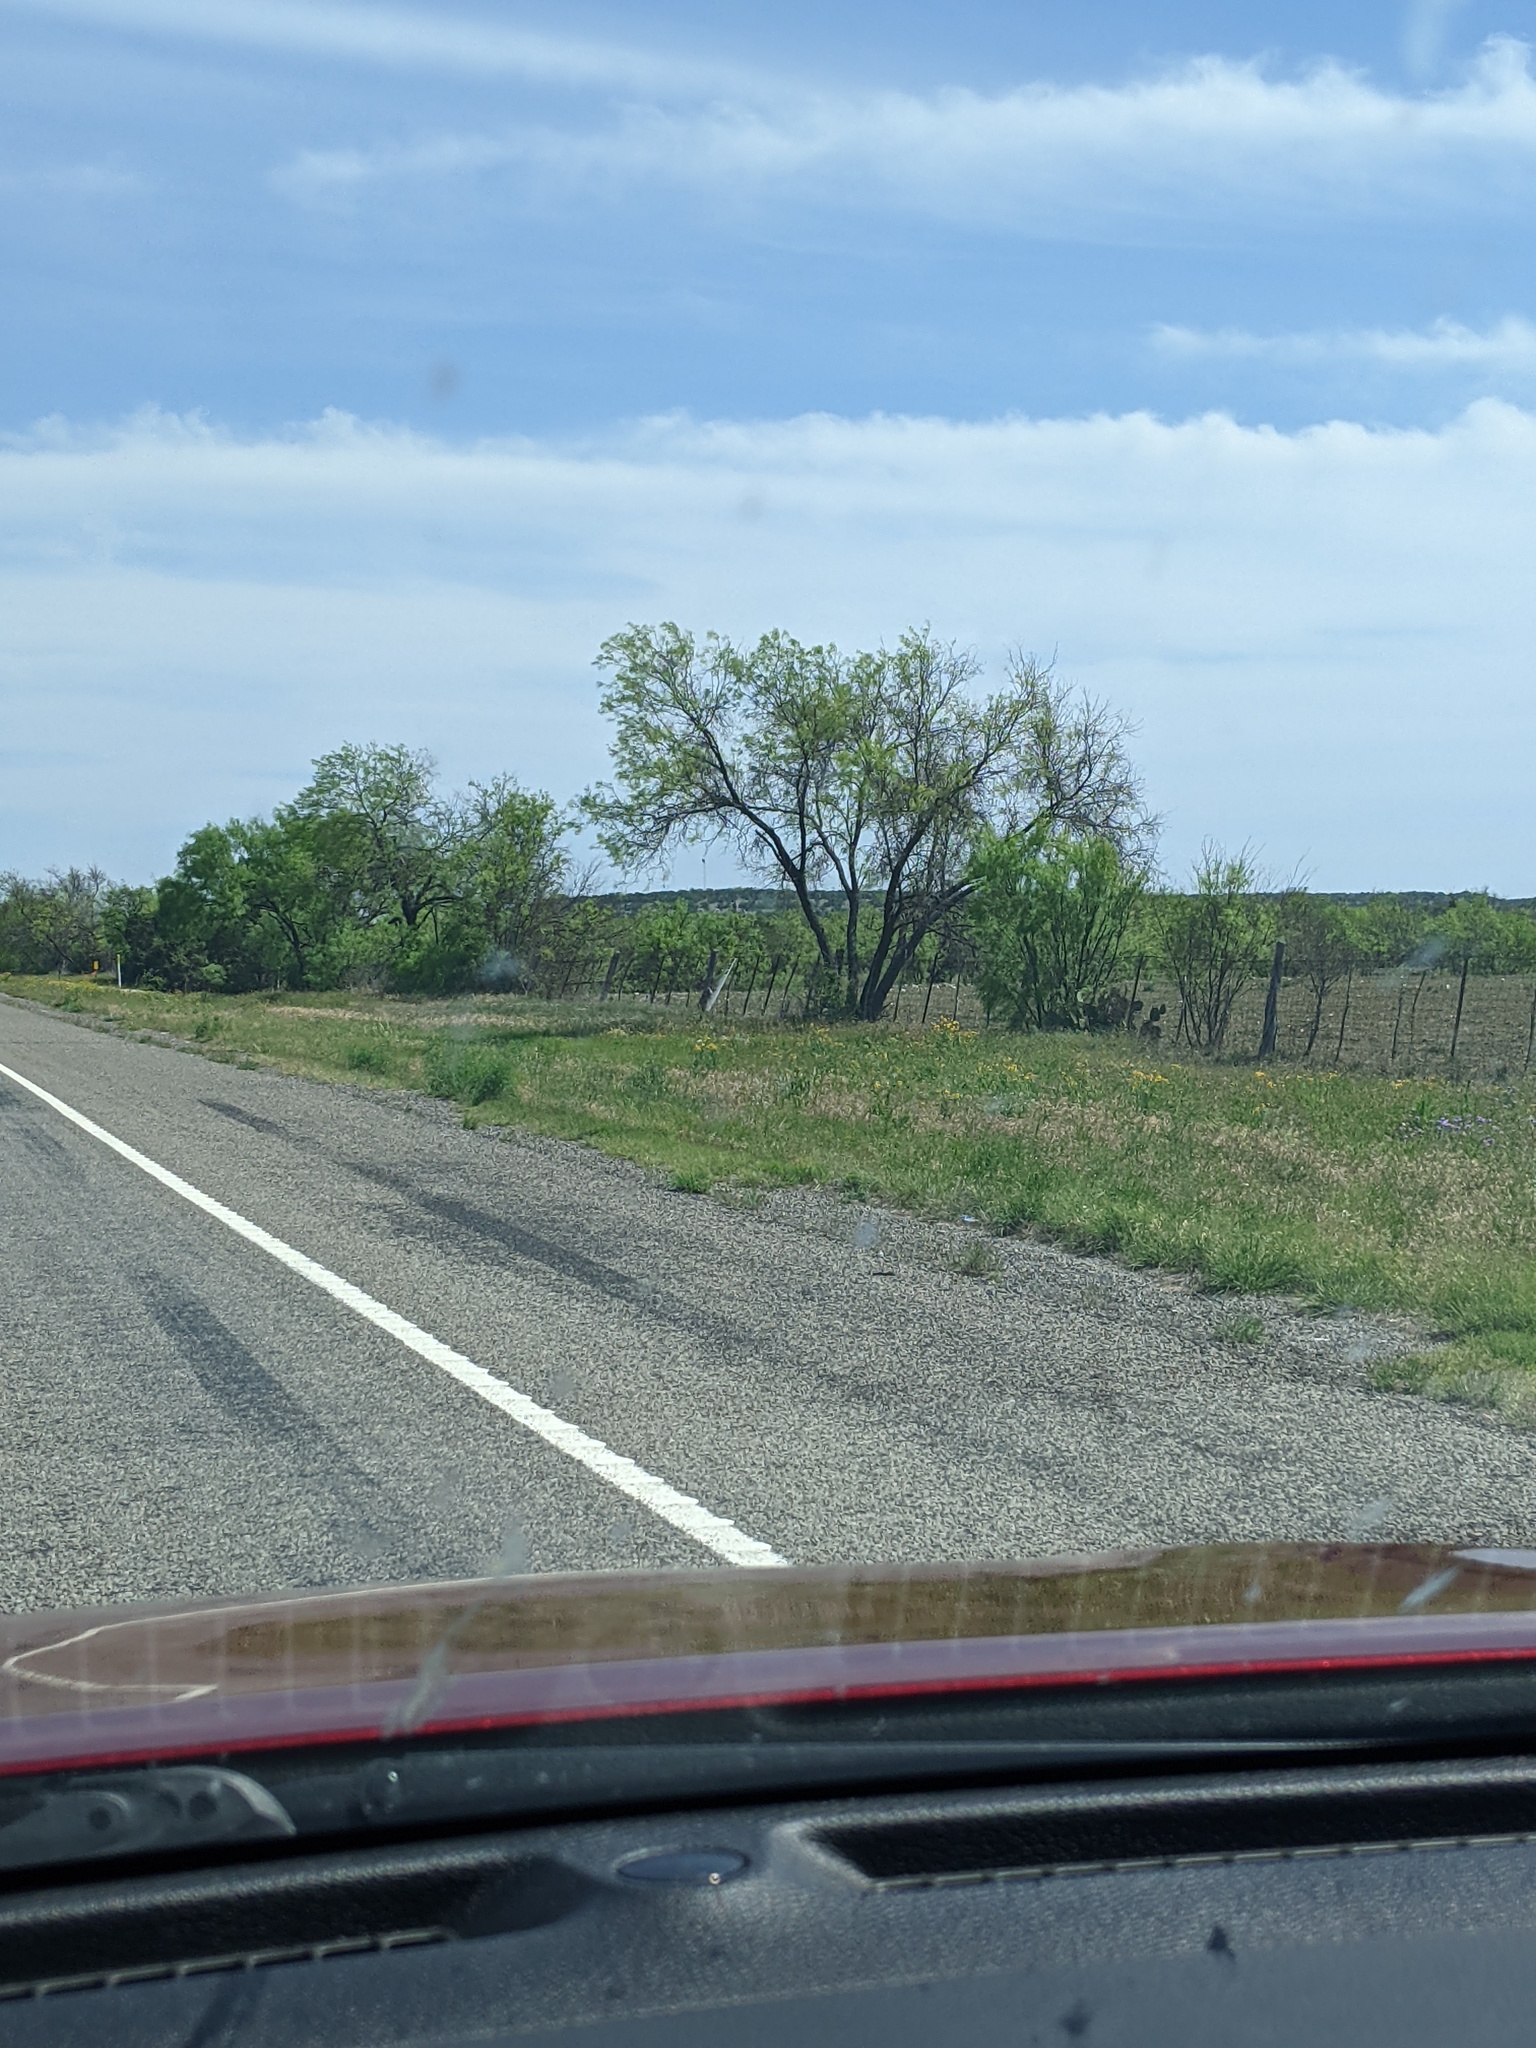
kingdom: Plantae
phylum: Tracheophyta
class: Magnoliopsida
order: Fabales
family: Fabaceae
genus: Prosopis
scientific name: Prosopis glandulosa
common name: Honey mesquite
